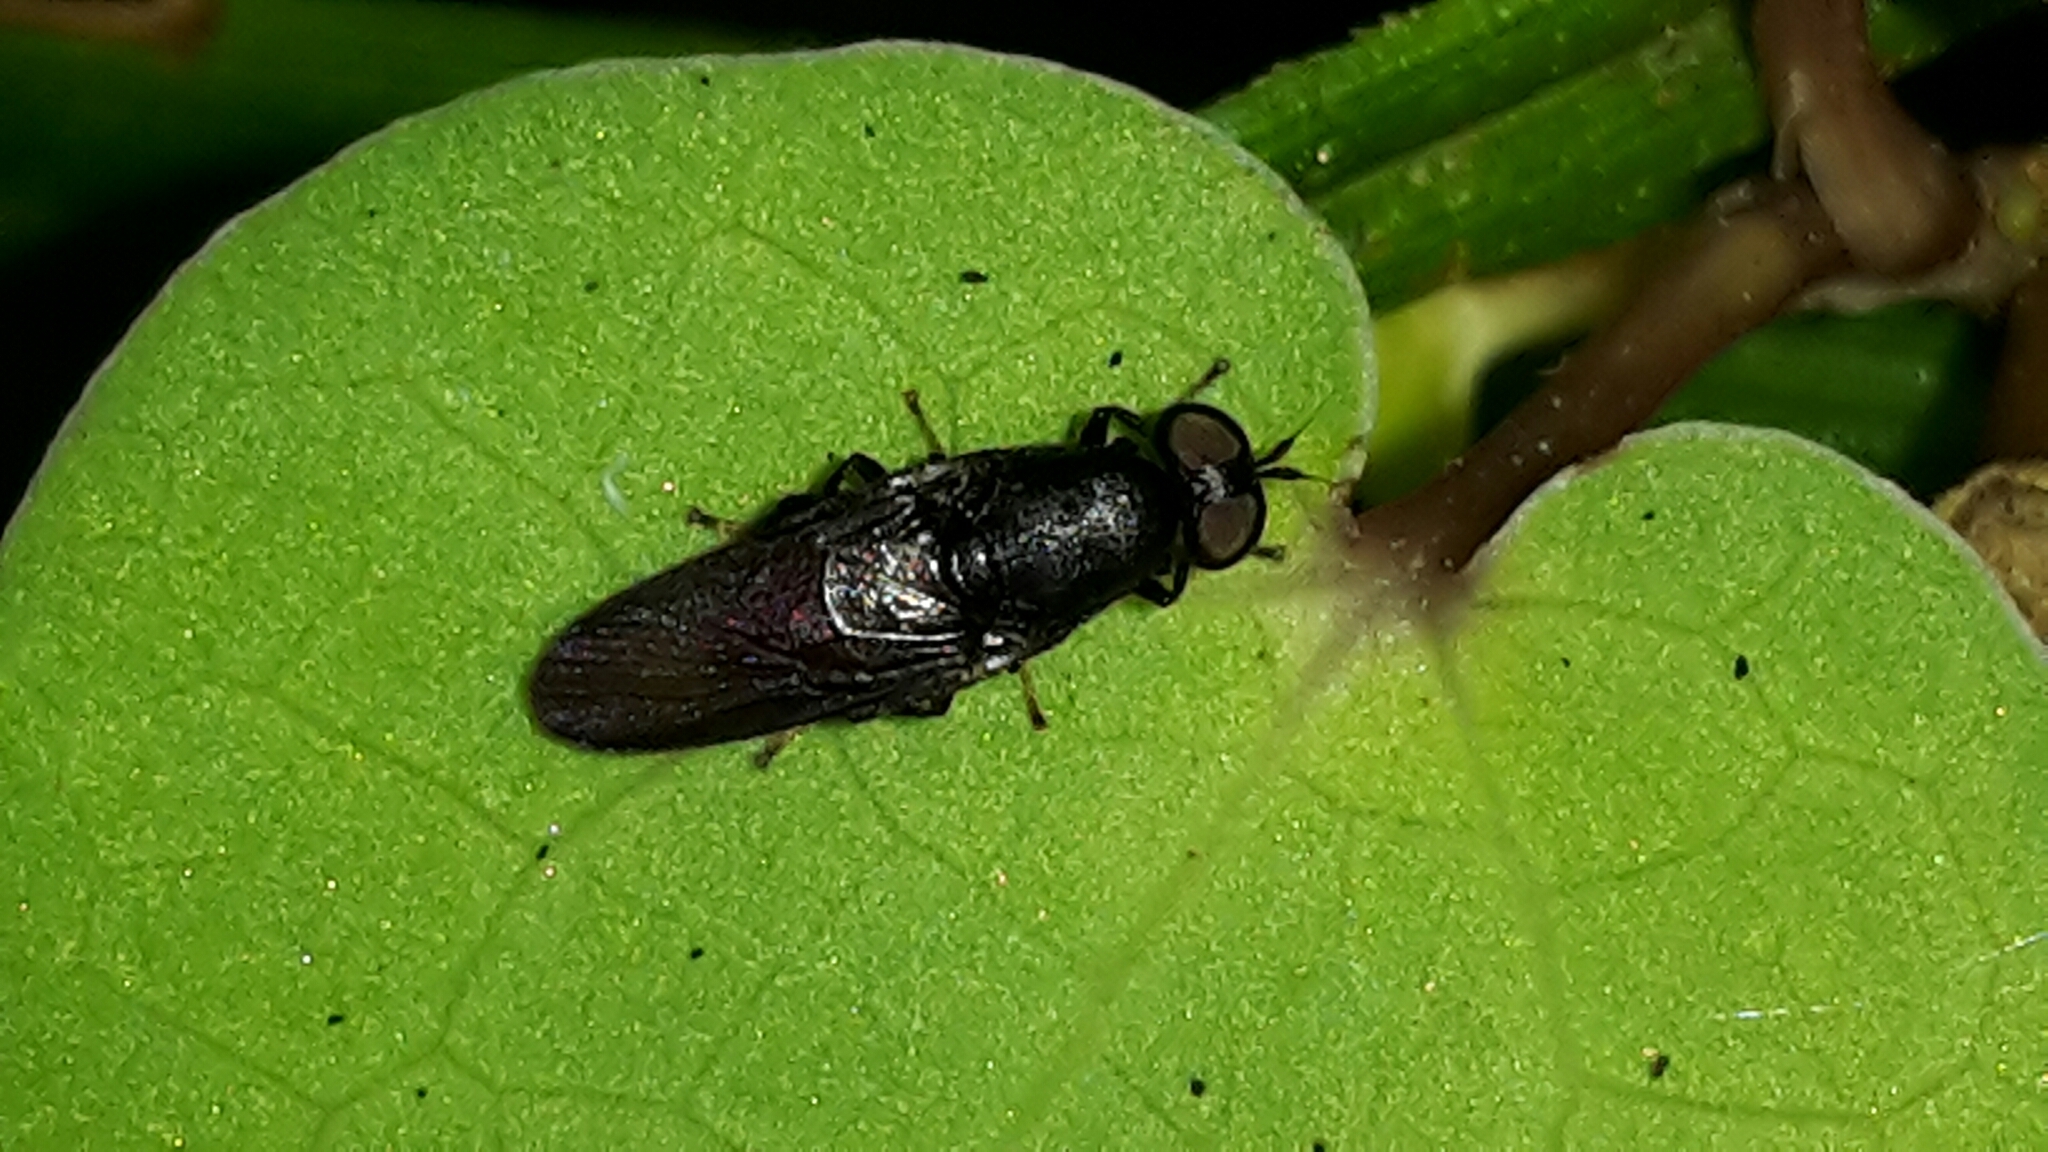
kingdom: Animalia
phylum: Arthropoda
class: Insecta
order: Diptera
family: Stratiomyidae
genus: Dysbiota
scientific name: Dysbiota parvula
